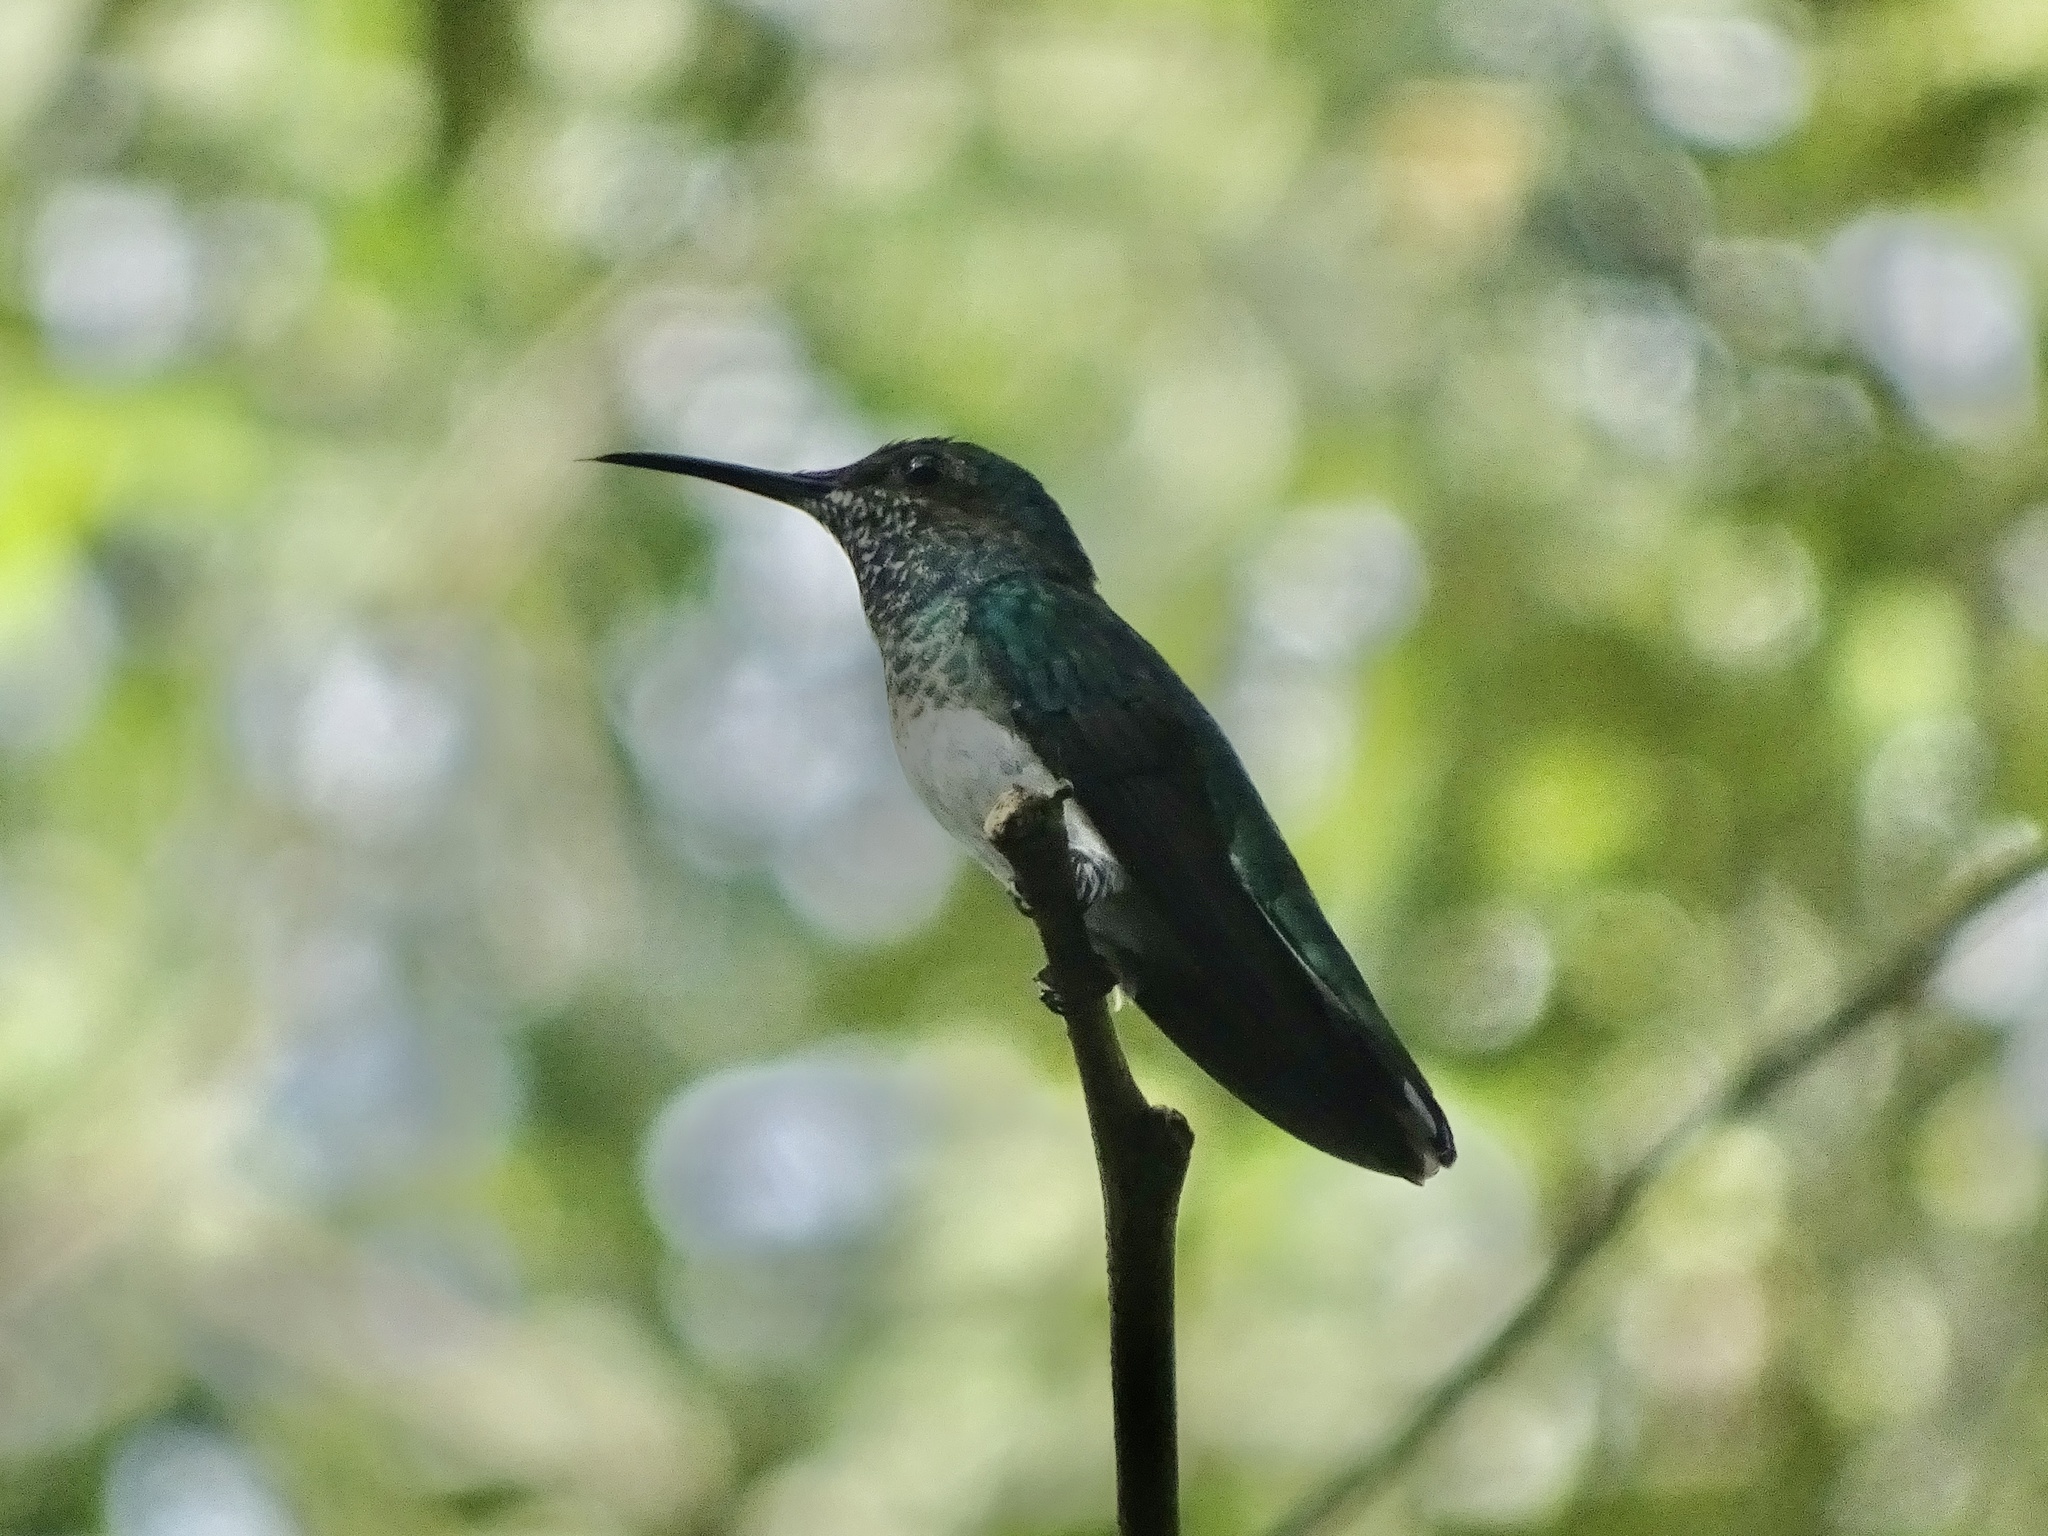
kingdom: Animalia
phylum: Chordata
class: Aves
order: Apodiformes
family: Trochilidae
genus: Florisuga
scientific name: Florisuga mellivora
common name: White-necked jacobin
